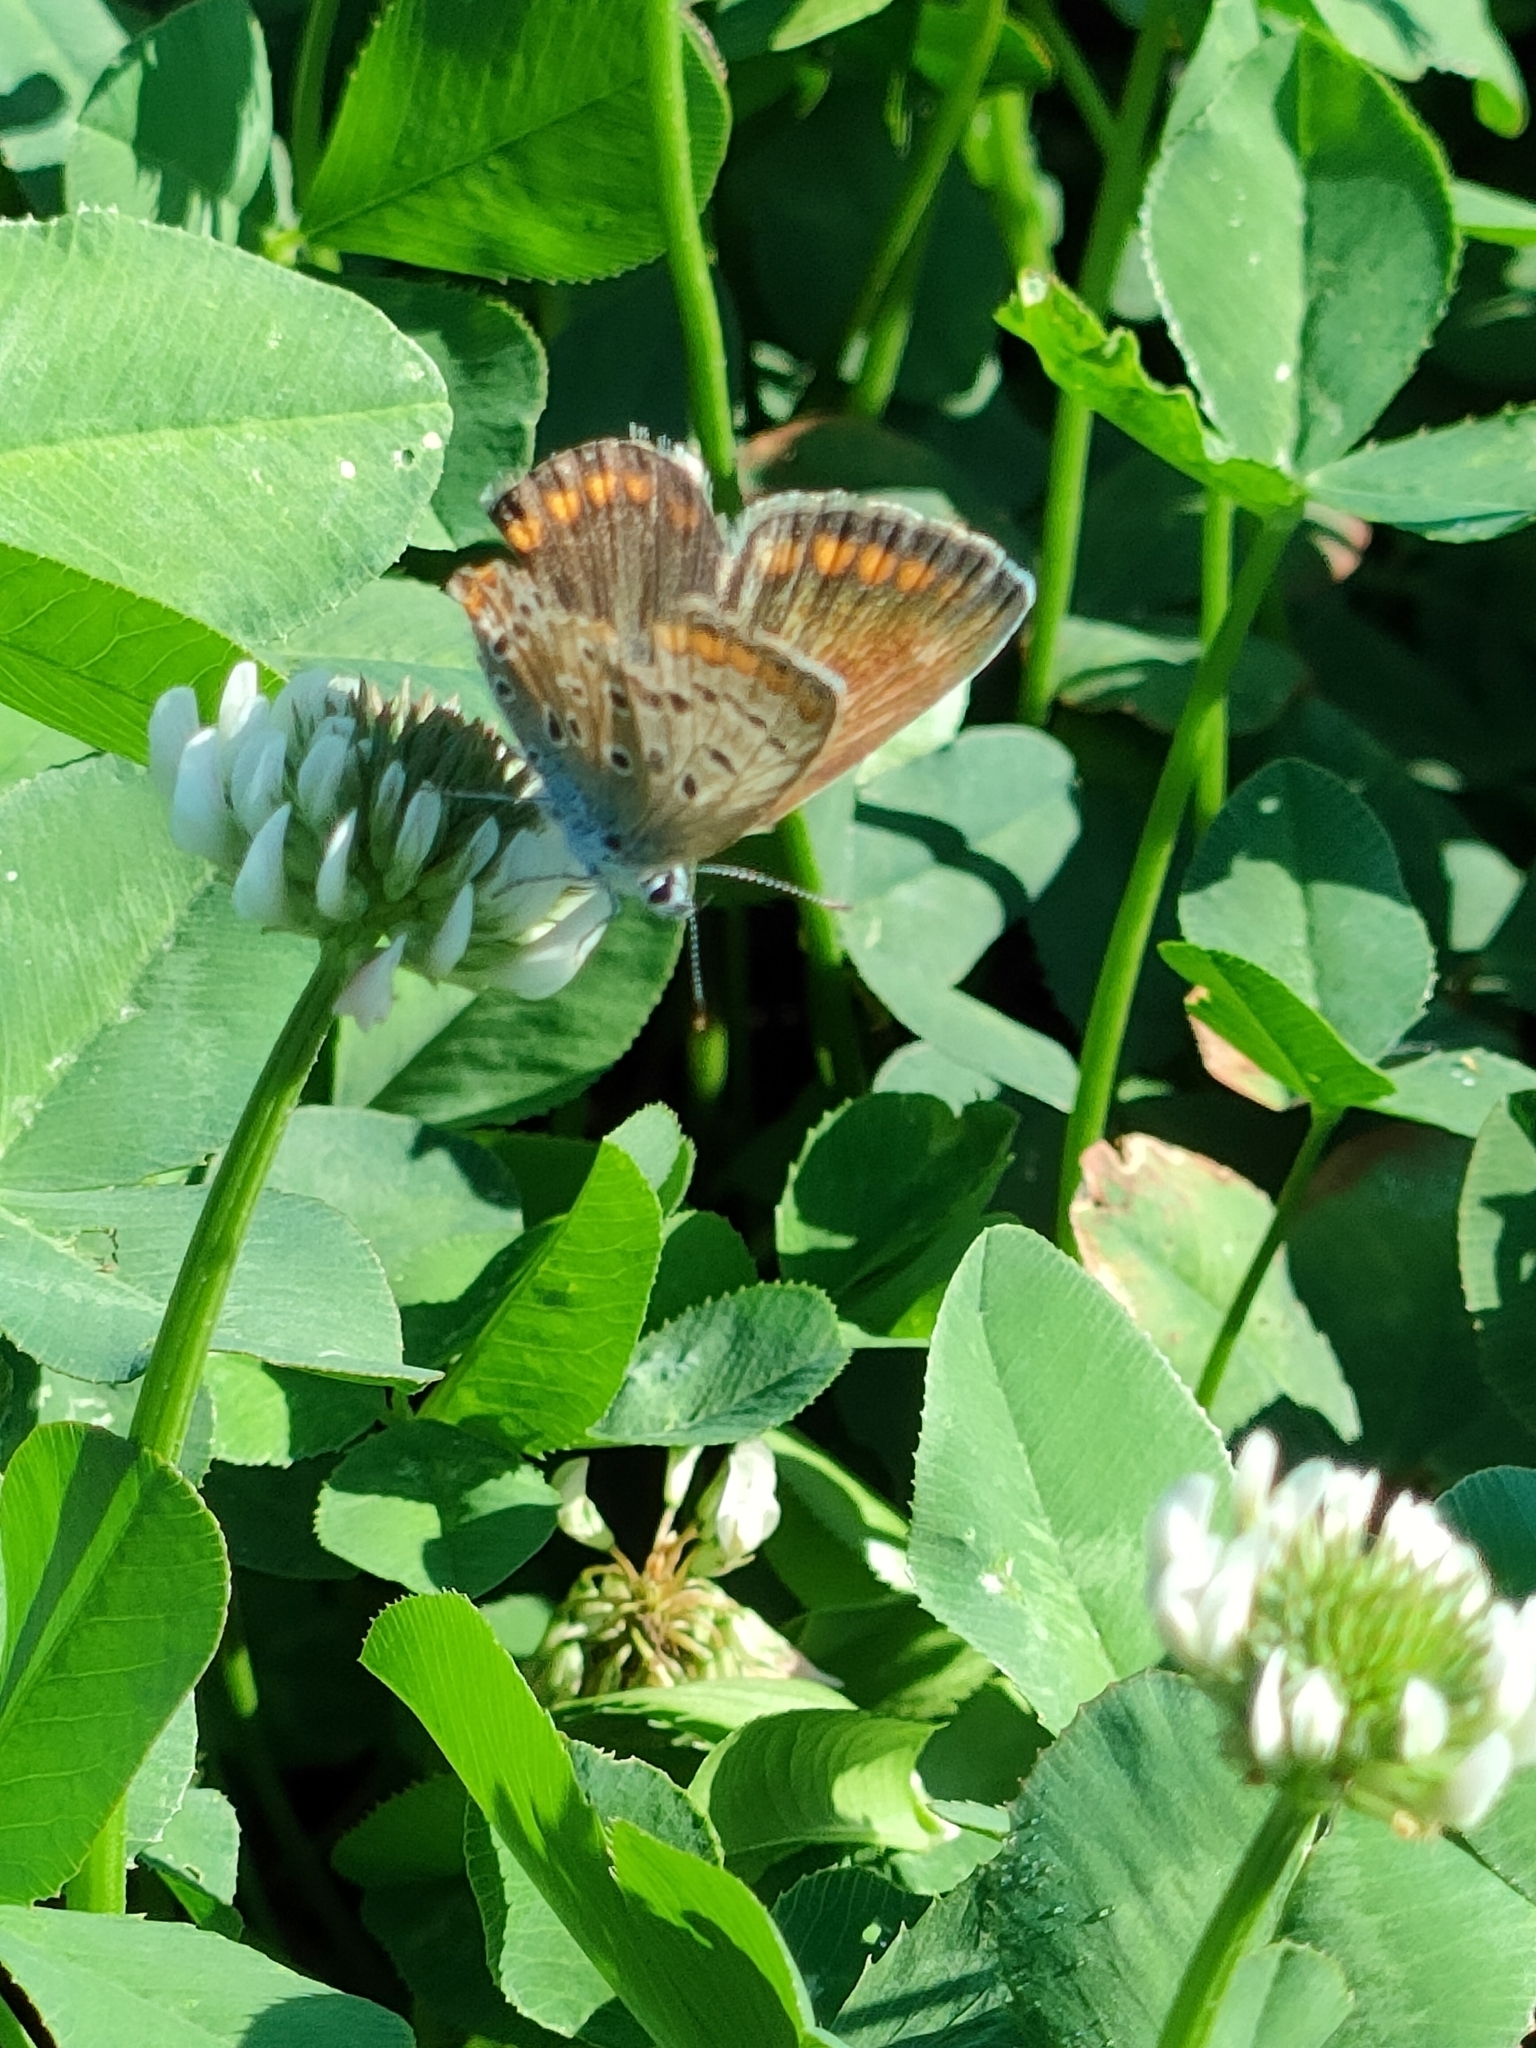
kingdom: Animalia
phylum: Arthropoda
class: Insecta
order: Lepidoptera
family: Lycaenidae
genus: Polyommatus
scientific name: Polyommatus icarus
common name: Common blue
